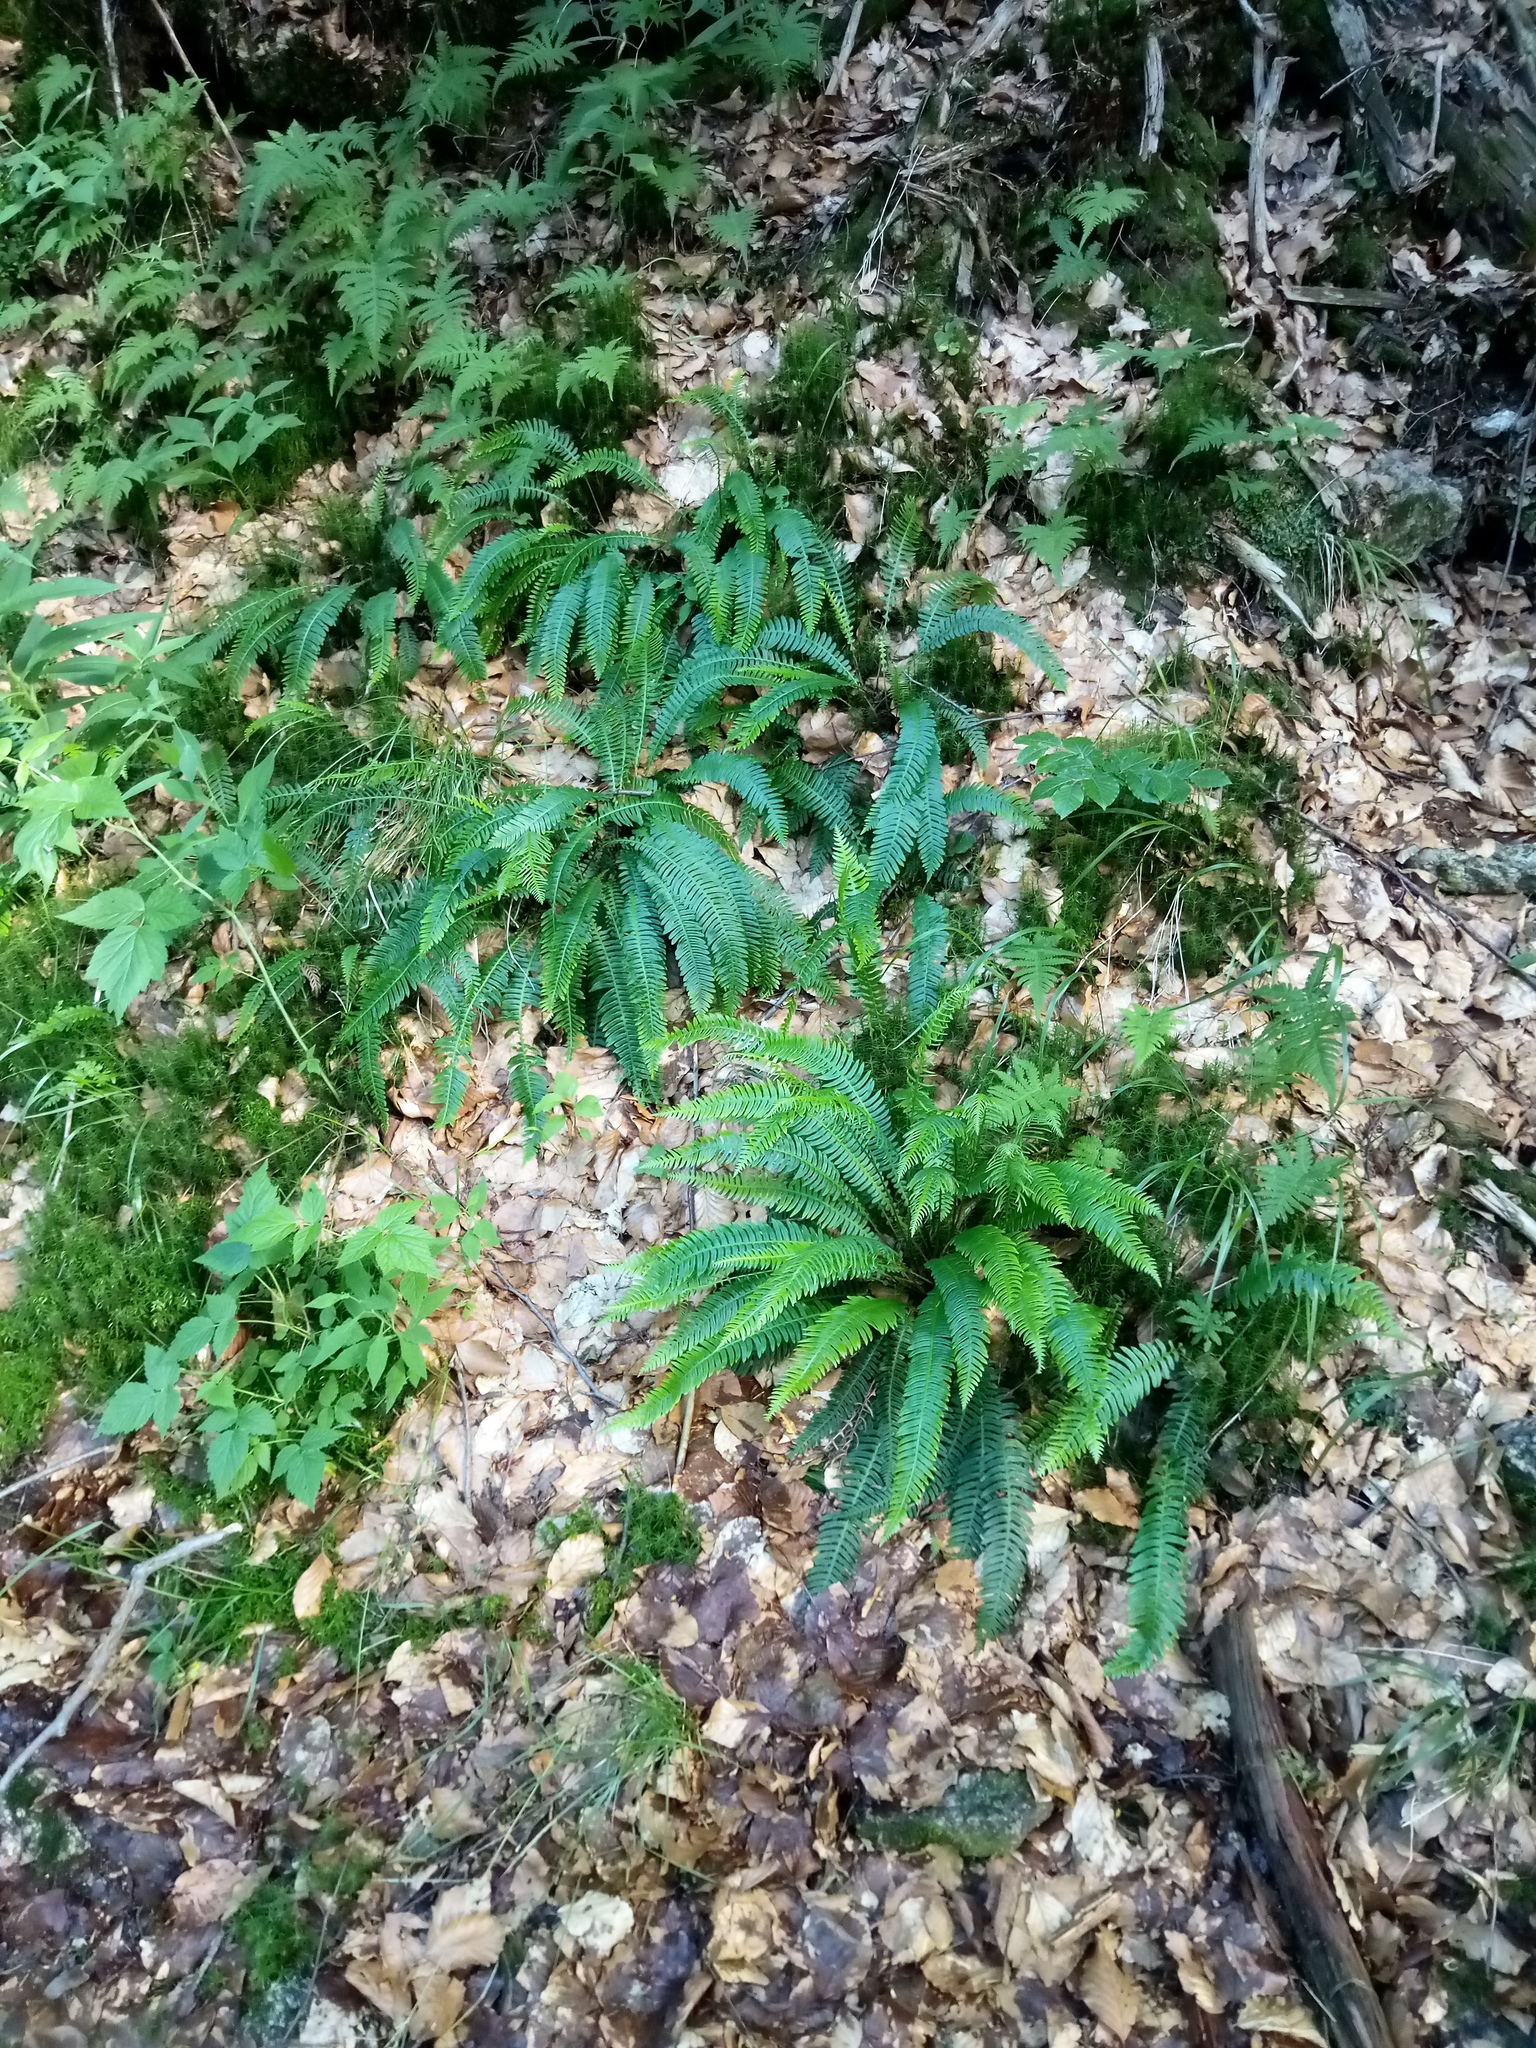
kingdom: Plantae
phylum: Tracheophyta
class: Polypodiopsida
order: Polypodiales
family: Blechnaceae
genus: Struthiopteris
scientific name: Struthiopteris spicant
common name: Deer fern
